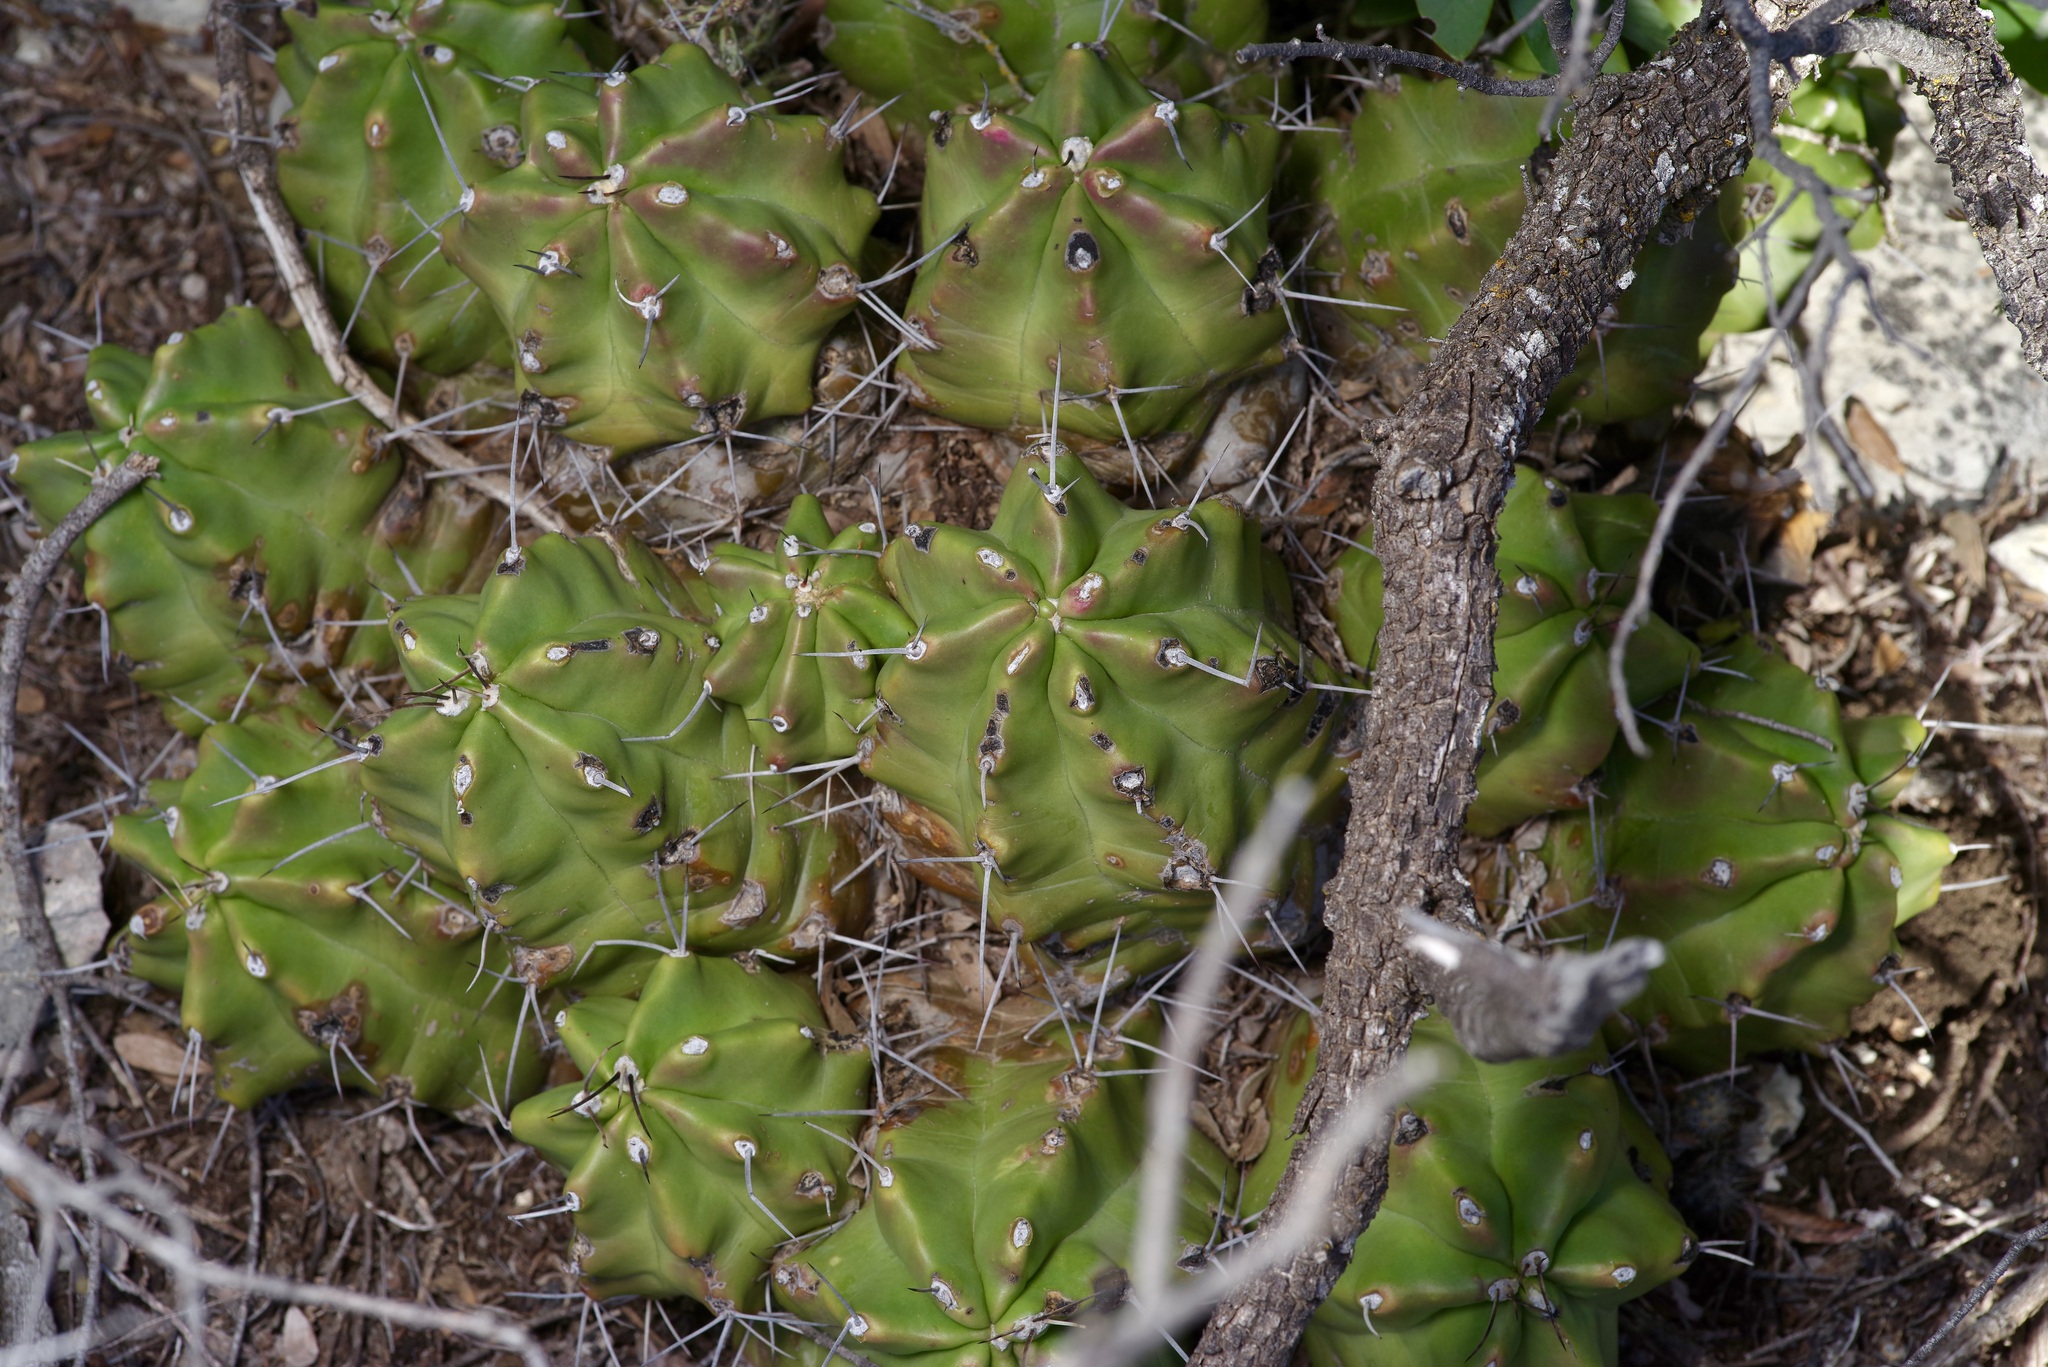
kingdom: Plantae
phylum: Tracheophyta
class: Magnoliopsida
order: Caryophyllales
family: Cactaceae
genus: Echinocereus
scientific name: Echinocereus coccineus
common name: Scarlet hedgehog cactus
